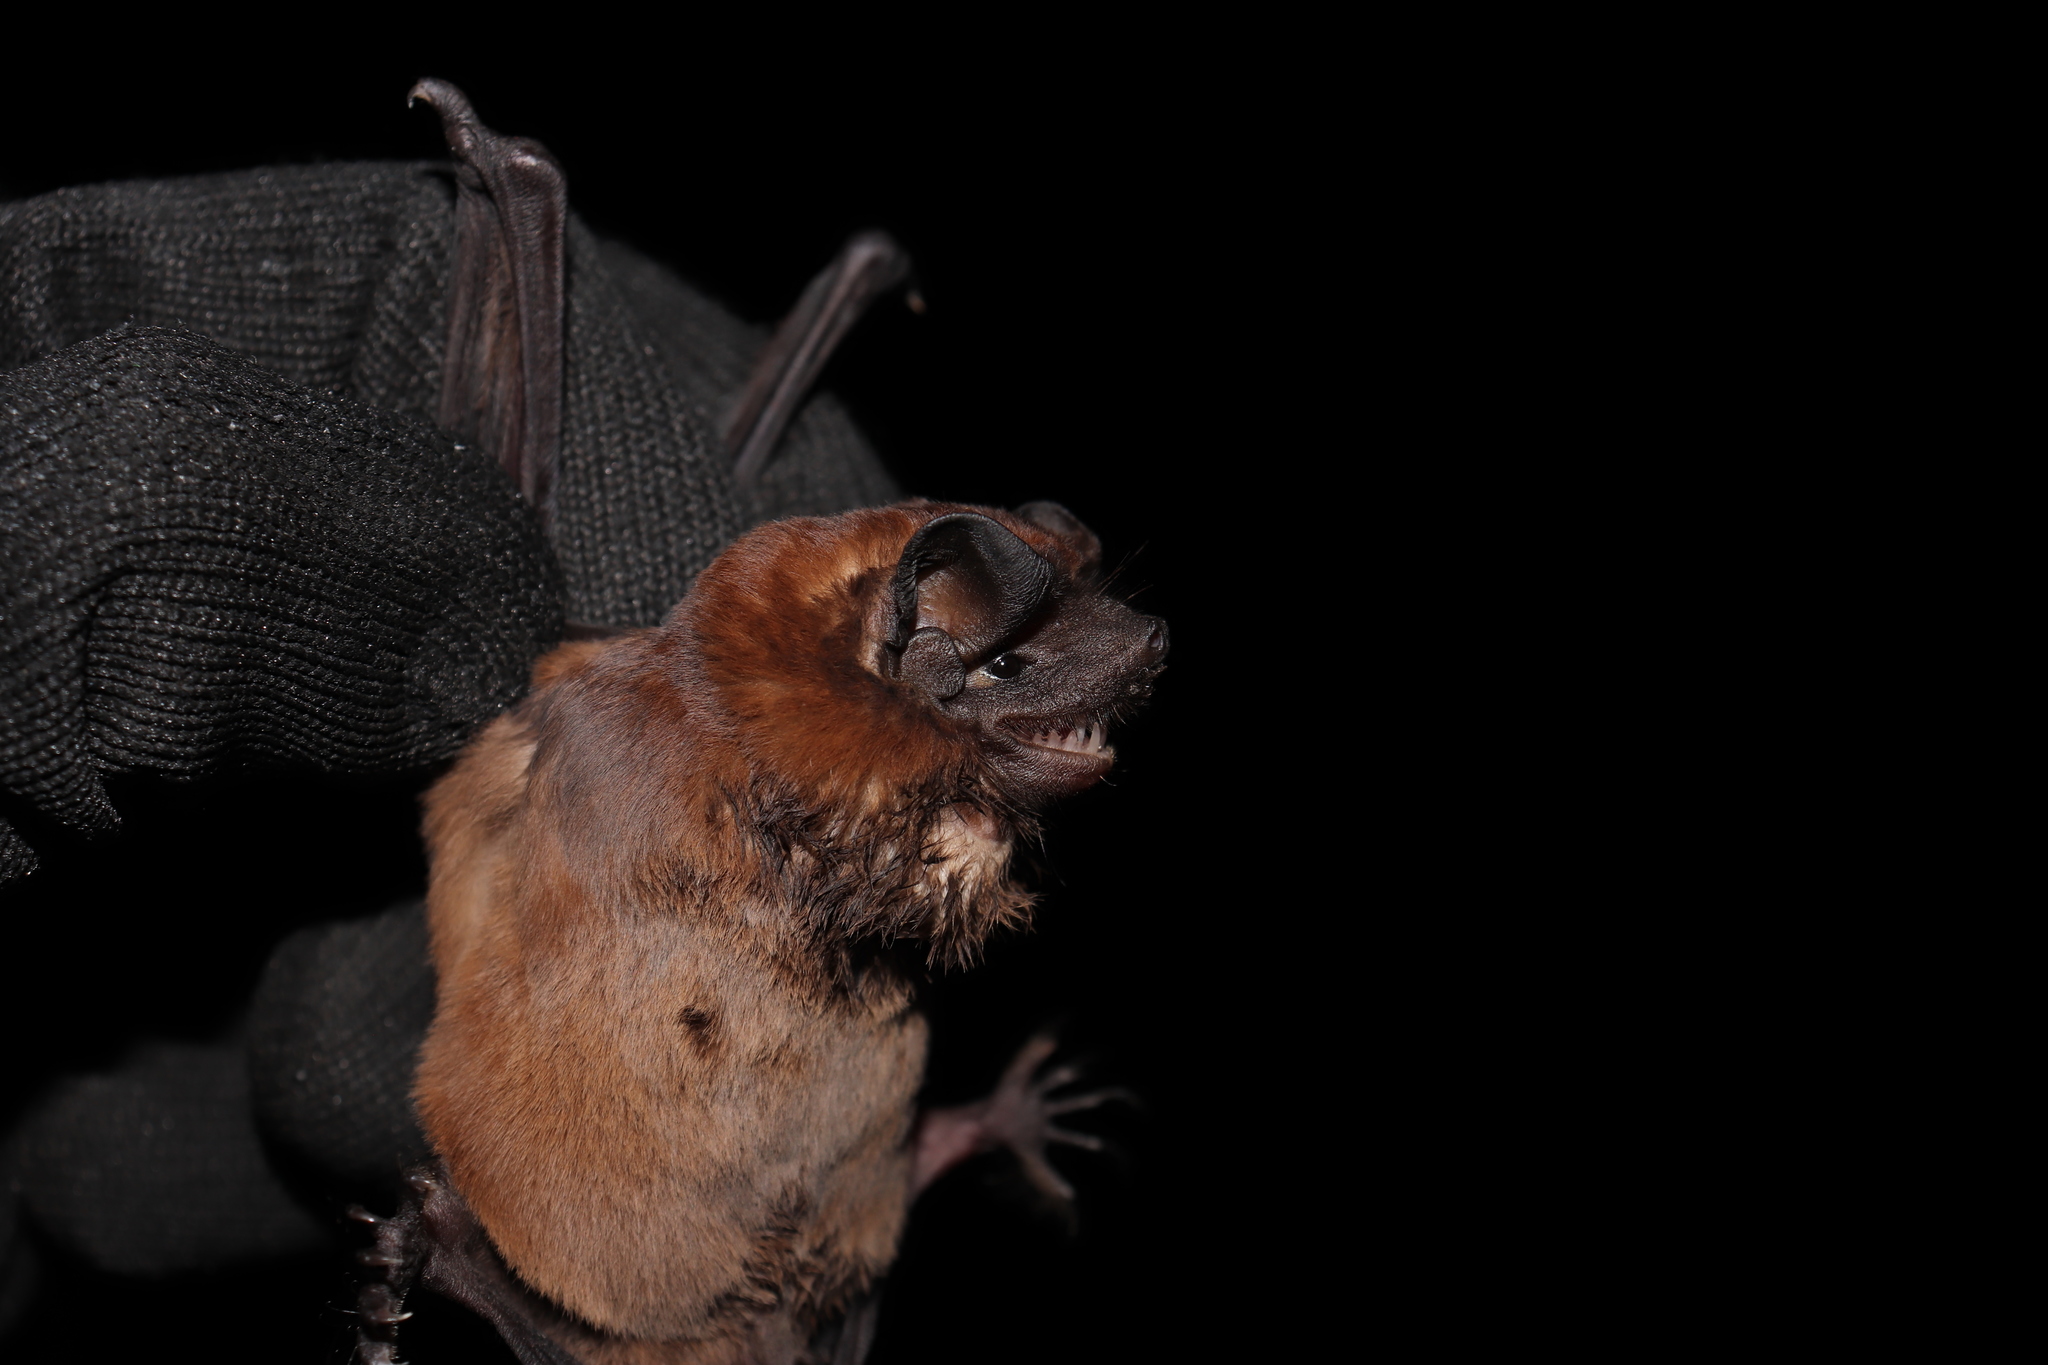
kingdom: Animalia
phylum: Chordata
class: Mammalia
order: Chiroptera
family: Molossidae
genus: Molossus
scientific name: Molossus molossus
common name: Pallas's mastiff bat
